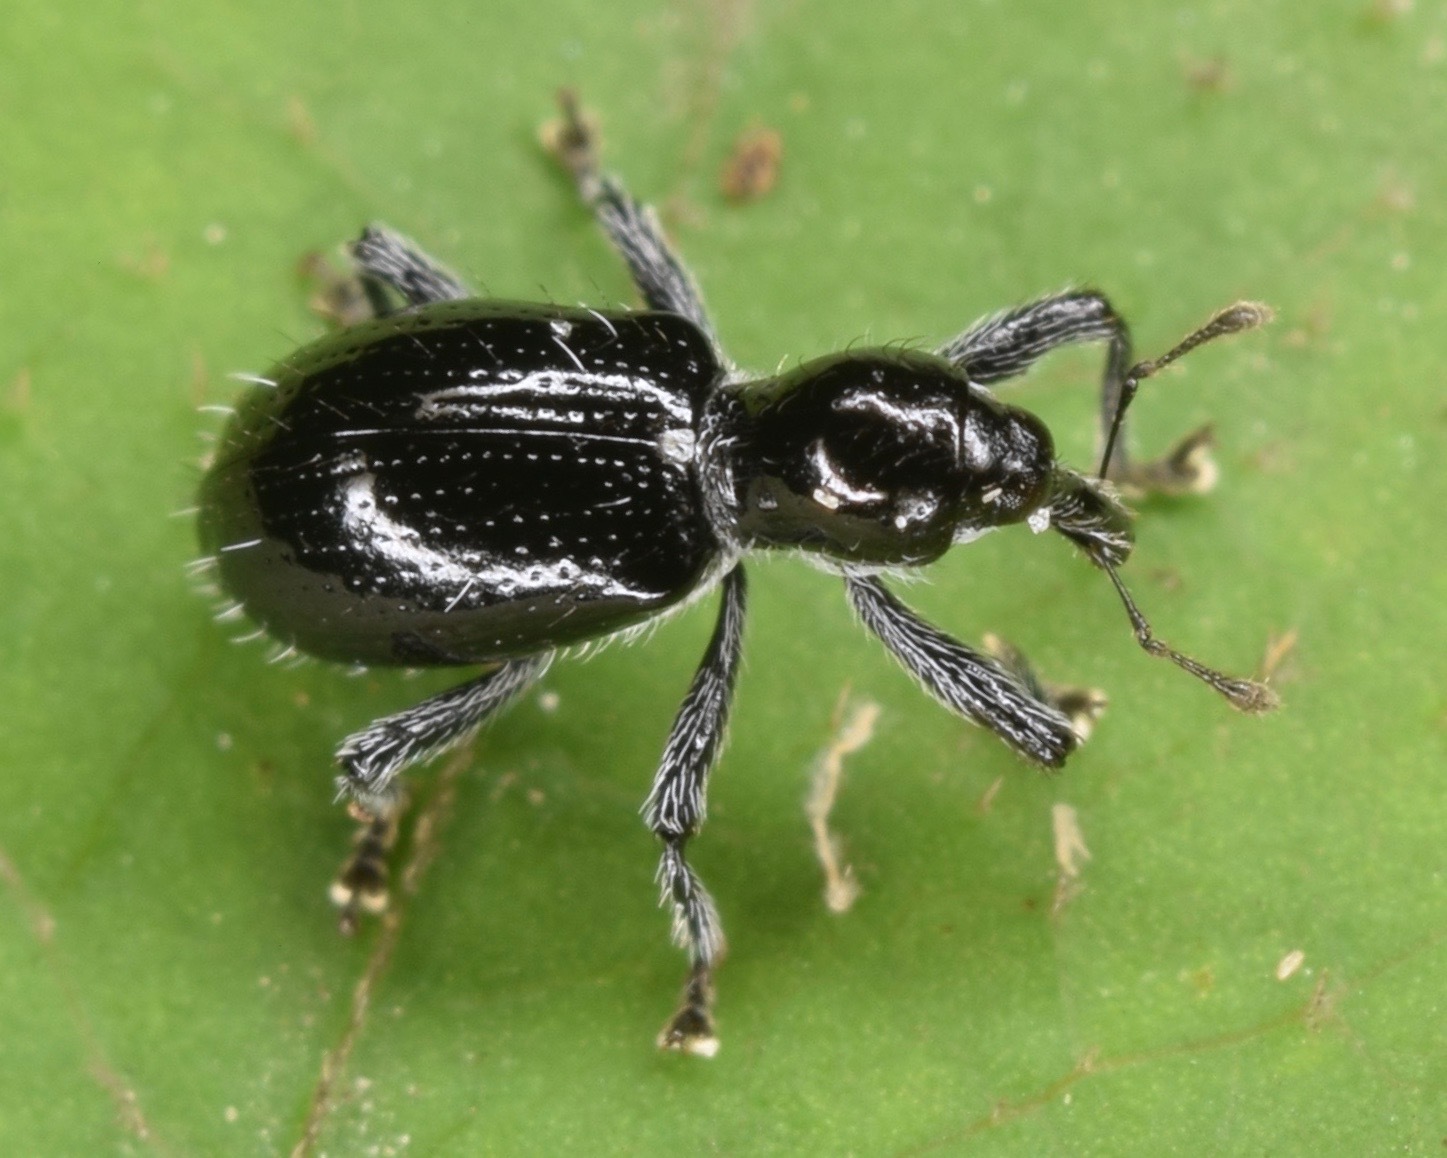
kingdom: Animalia
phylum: Arthropoda
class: Insecta
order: Coleoptera
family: Curculionidae
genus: Myrmex
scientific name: Myrmex myrmex
